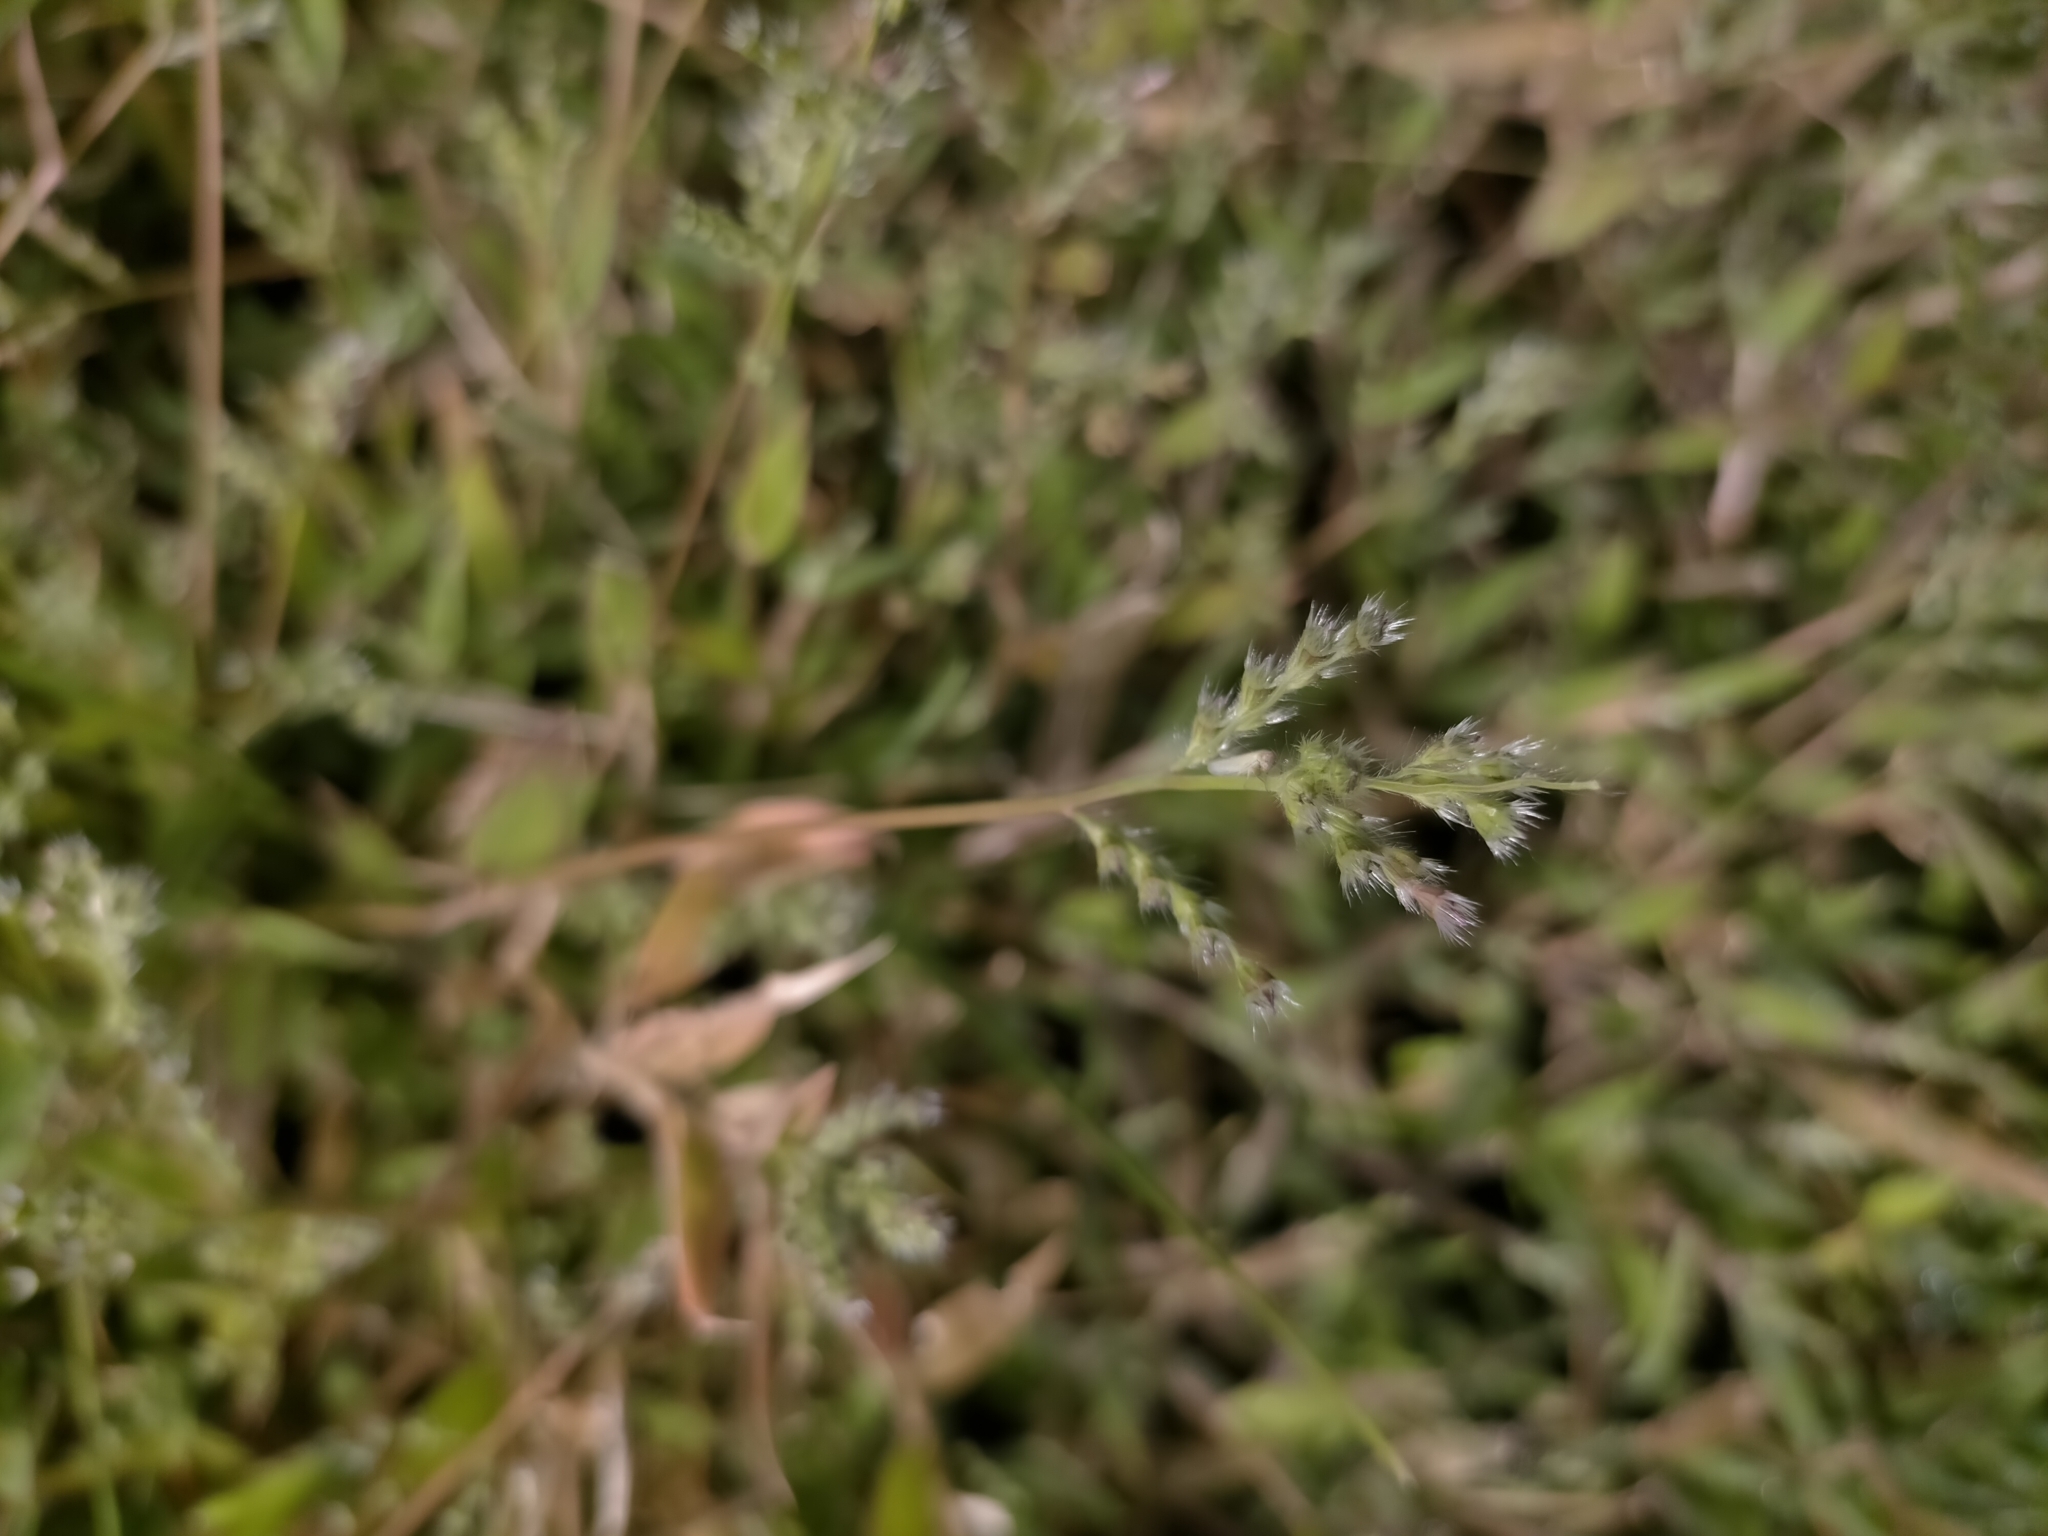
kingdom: Plantae
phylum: Tracheophyta
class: Liliopsida
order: Poales
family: Poaceae
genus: Urochloa
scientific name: Urochloa Brachiaria subrostrata
